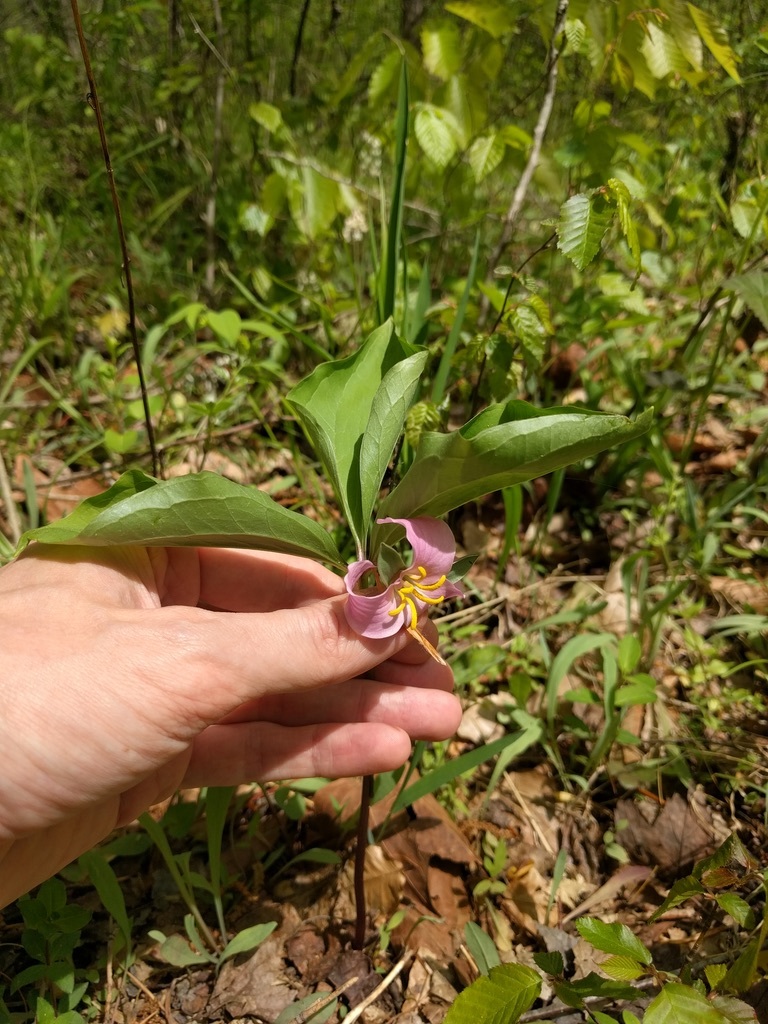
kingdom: Plantae
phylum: Tracheophyta
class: Liliopsida
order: Liliales
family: Melanthiaceae
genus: Trillium
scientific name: Trillium catesbaei
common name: Bashful trillium
